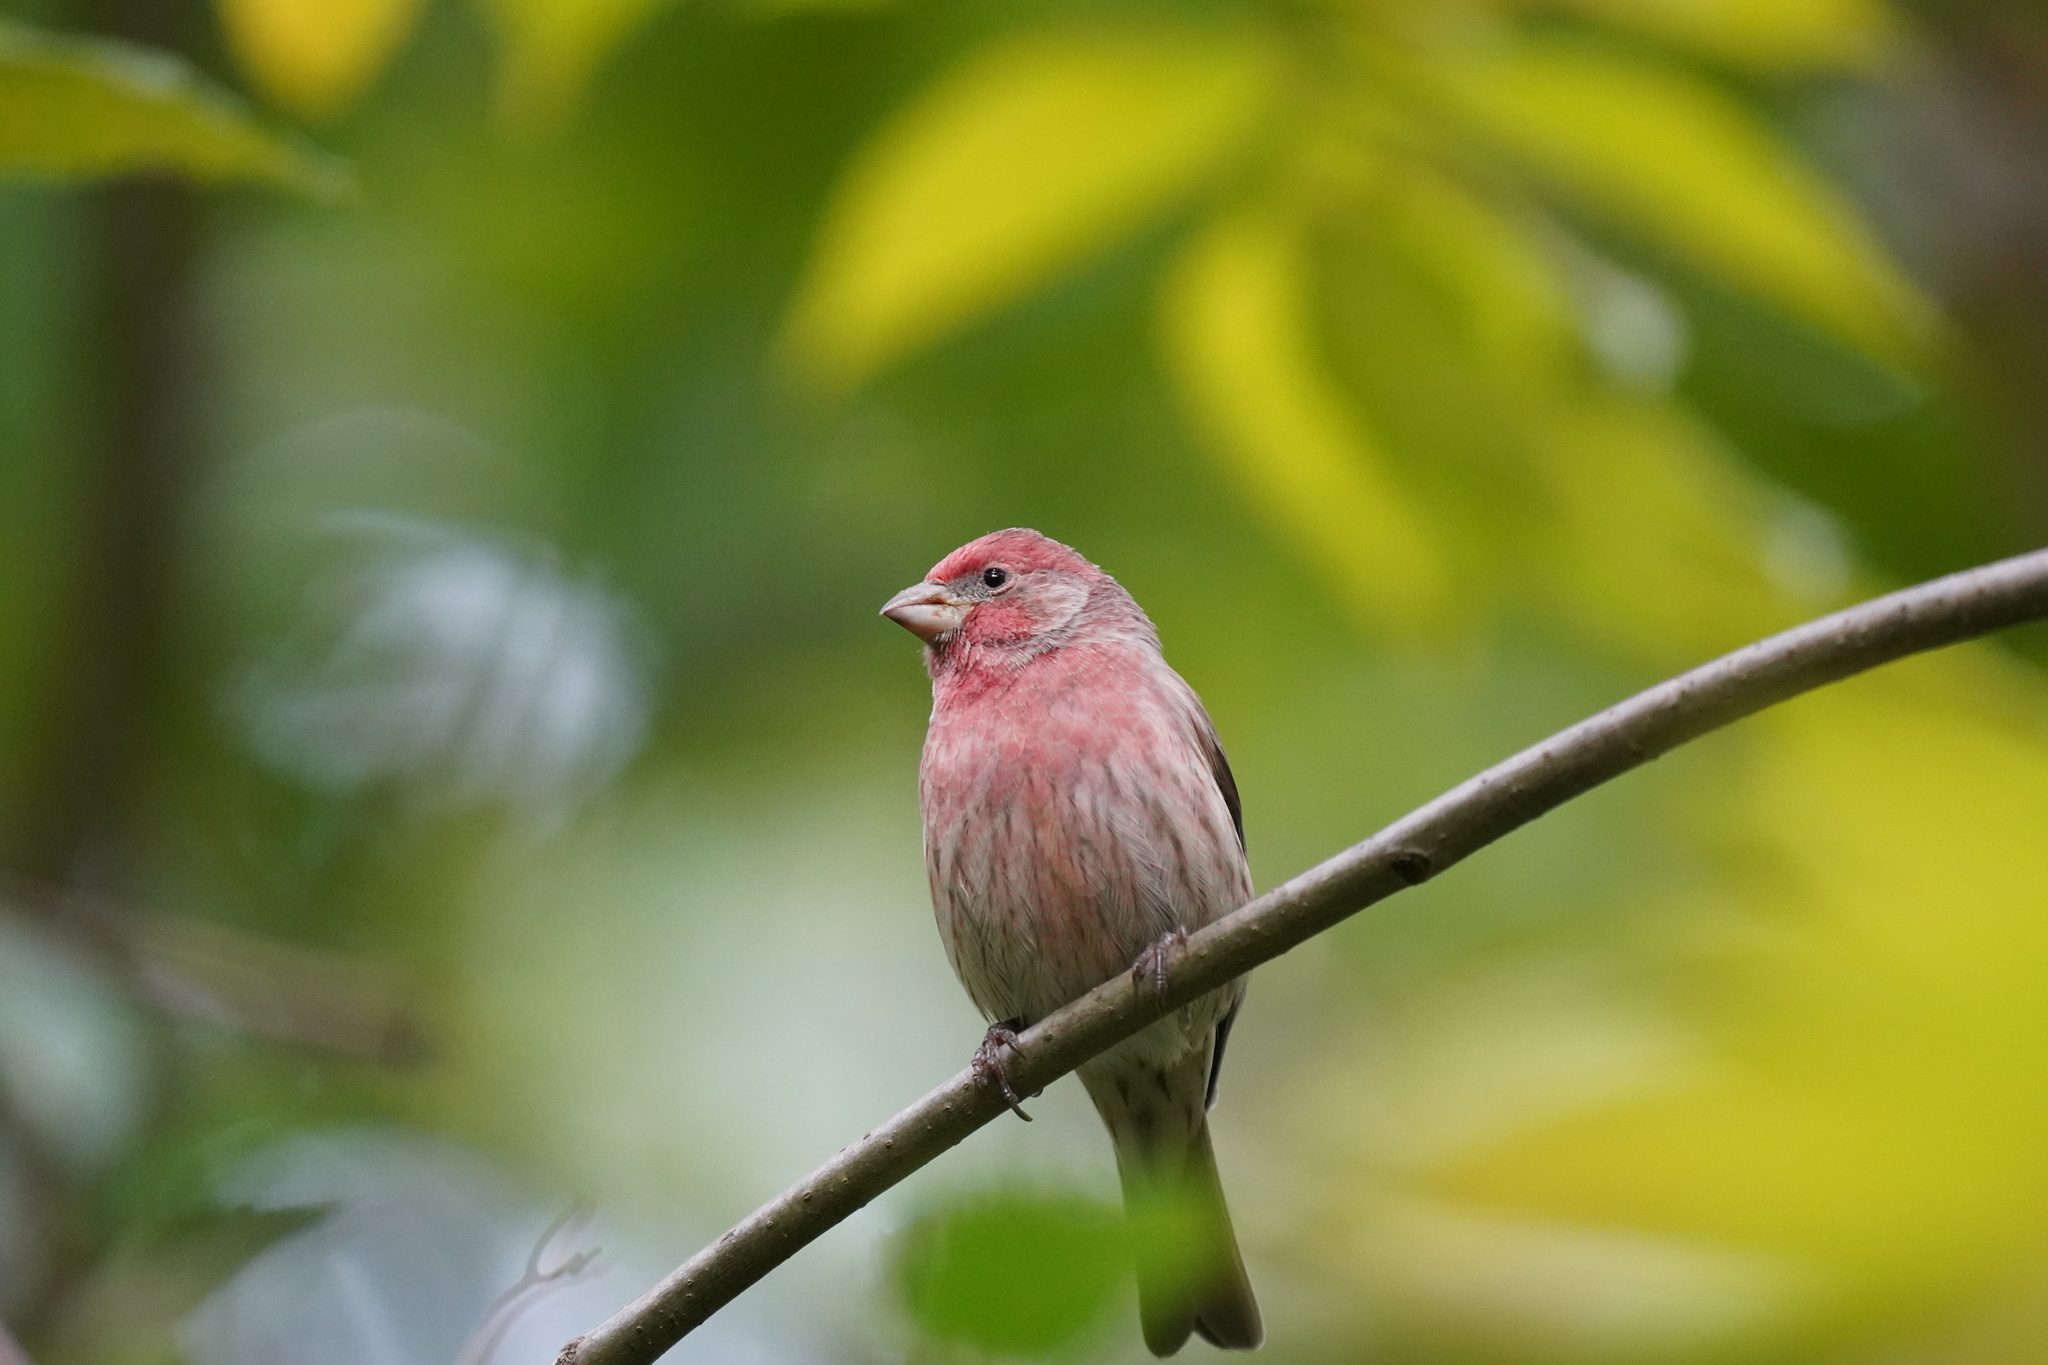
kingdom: Animalia
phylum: Chordata
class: Aves
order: Passeriformes
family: Fringillidae
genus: Haemorhous
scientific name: Haemorhous mexicanus
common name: House finch
